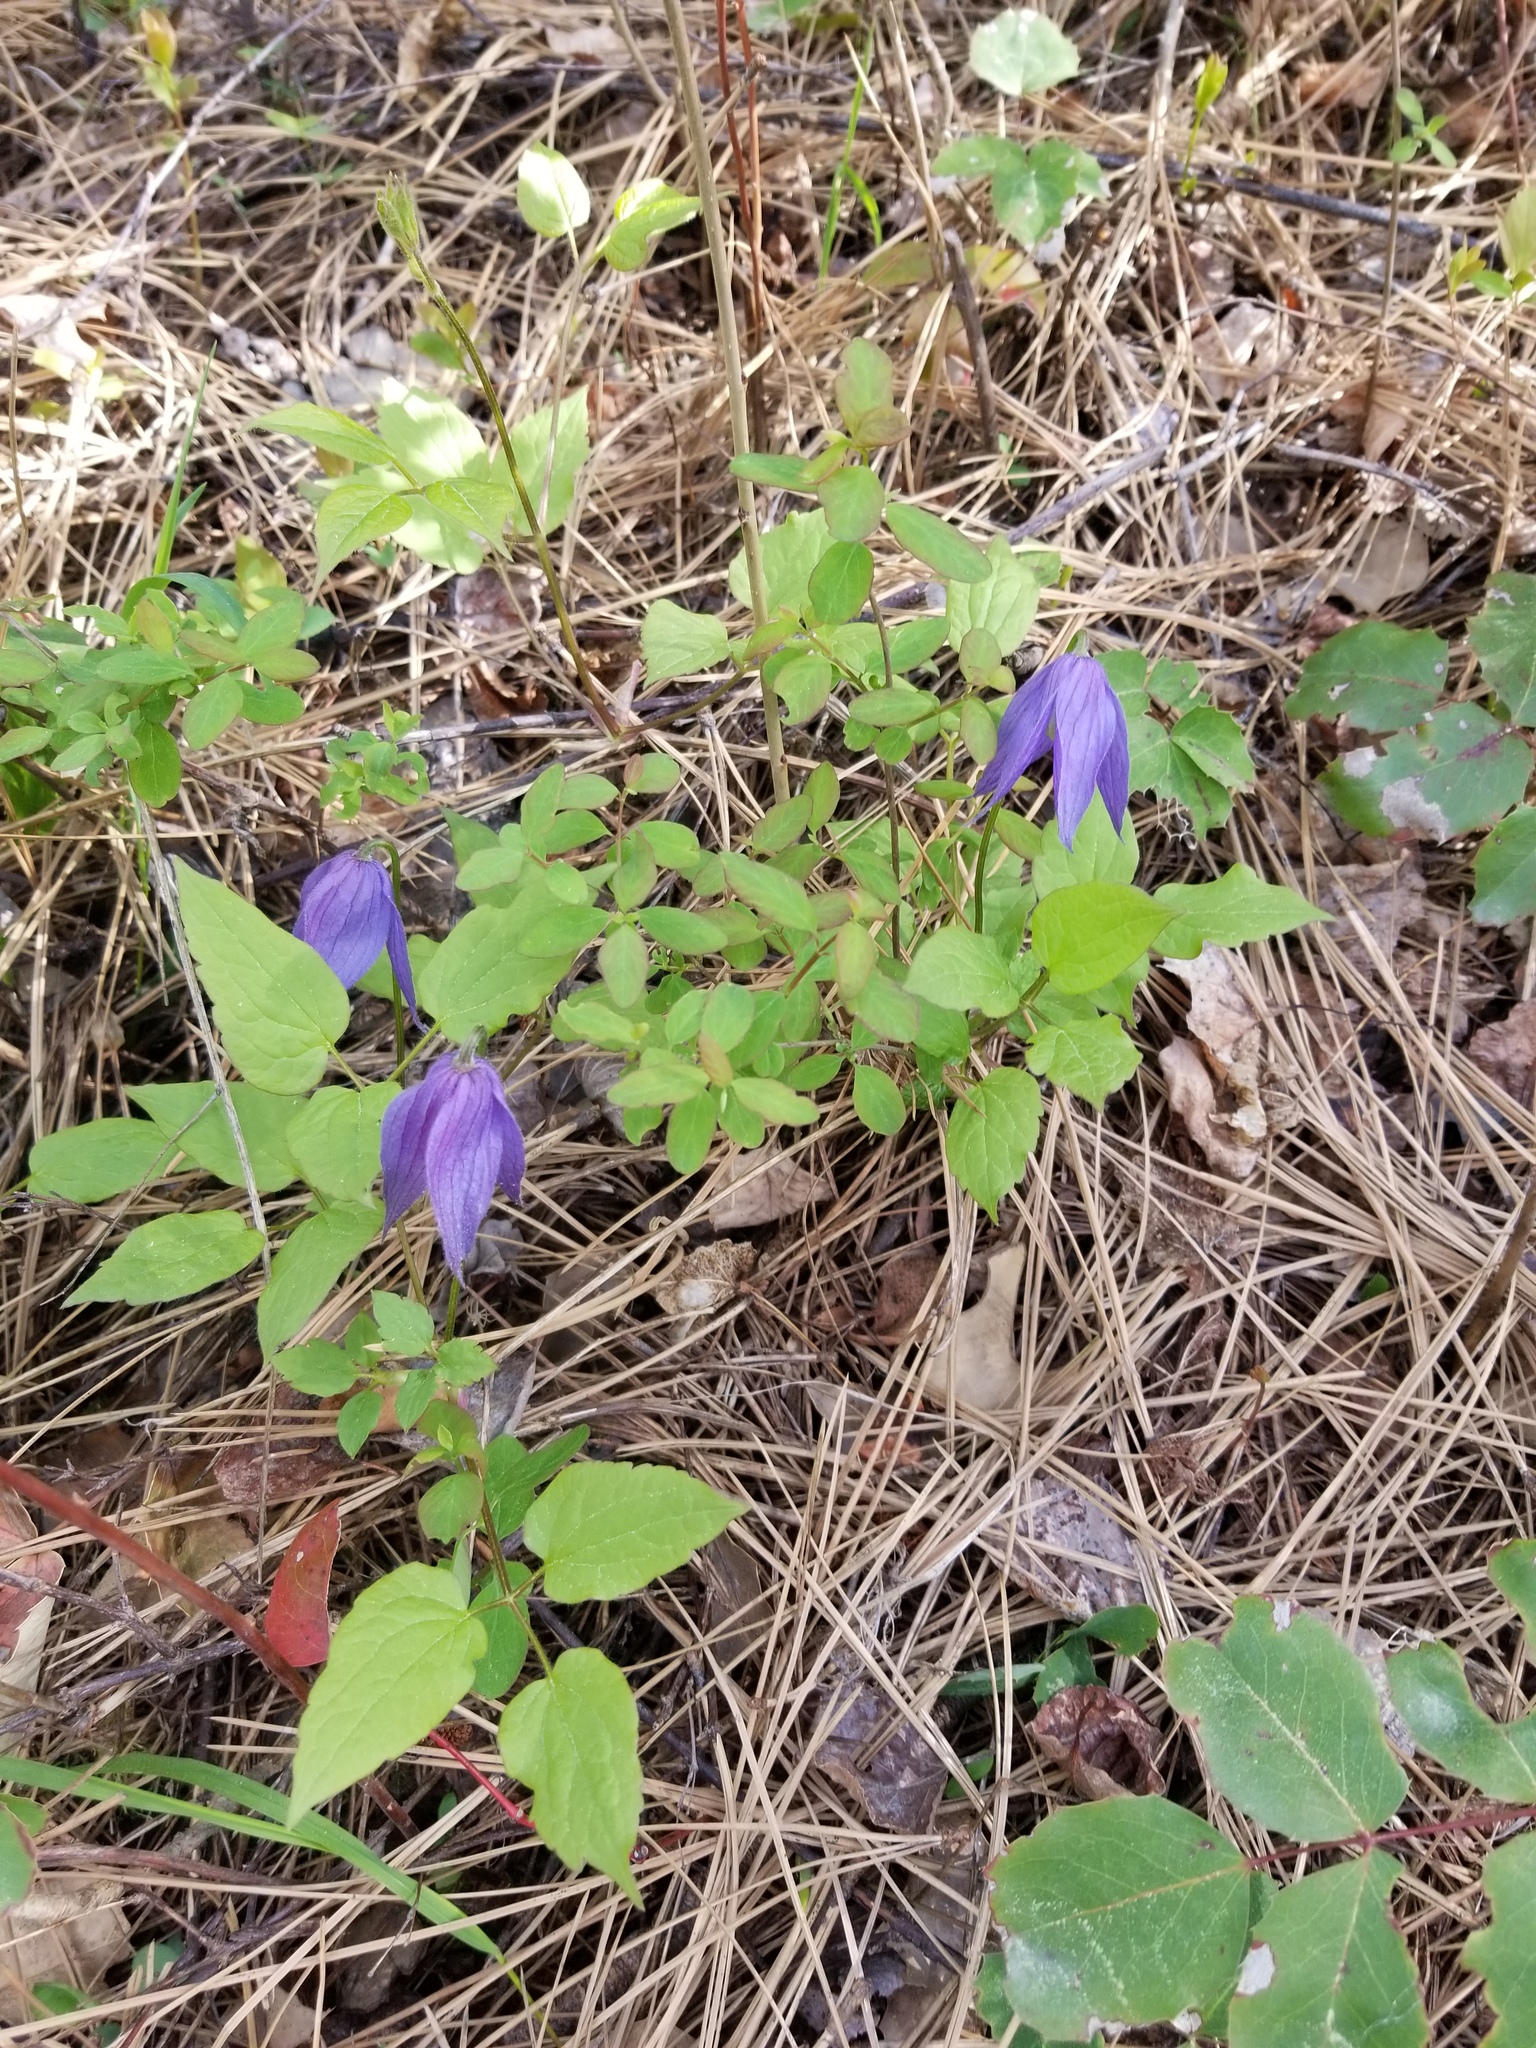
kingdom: Plantae
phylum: Tracheophyta
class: Magnoliopsida
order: Ranunculales
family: Ranunculaceae
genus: Clematis
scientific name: Clematis occidentalis
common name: Purple clematis
